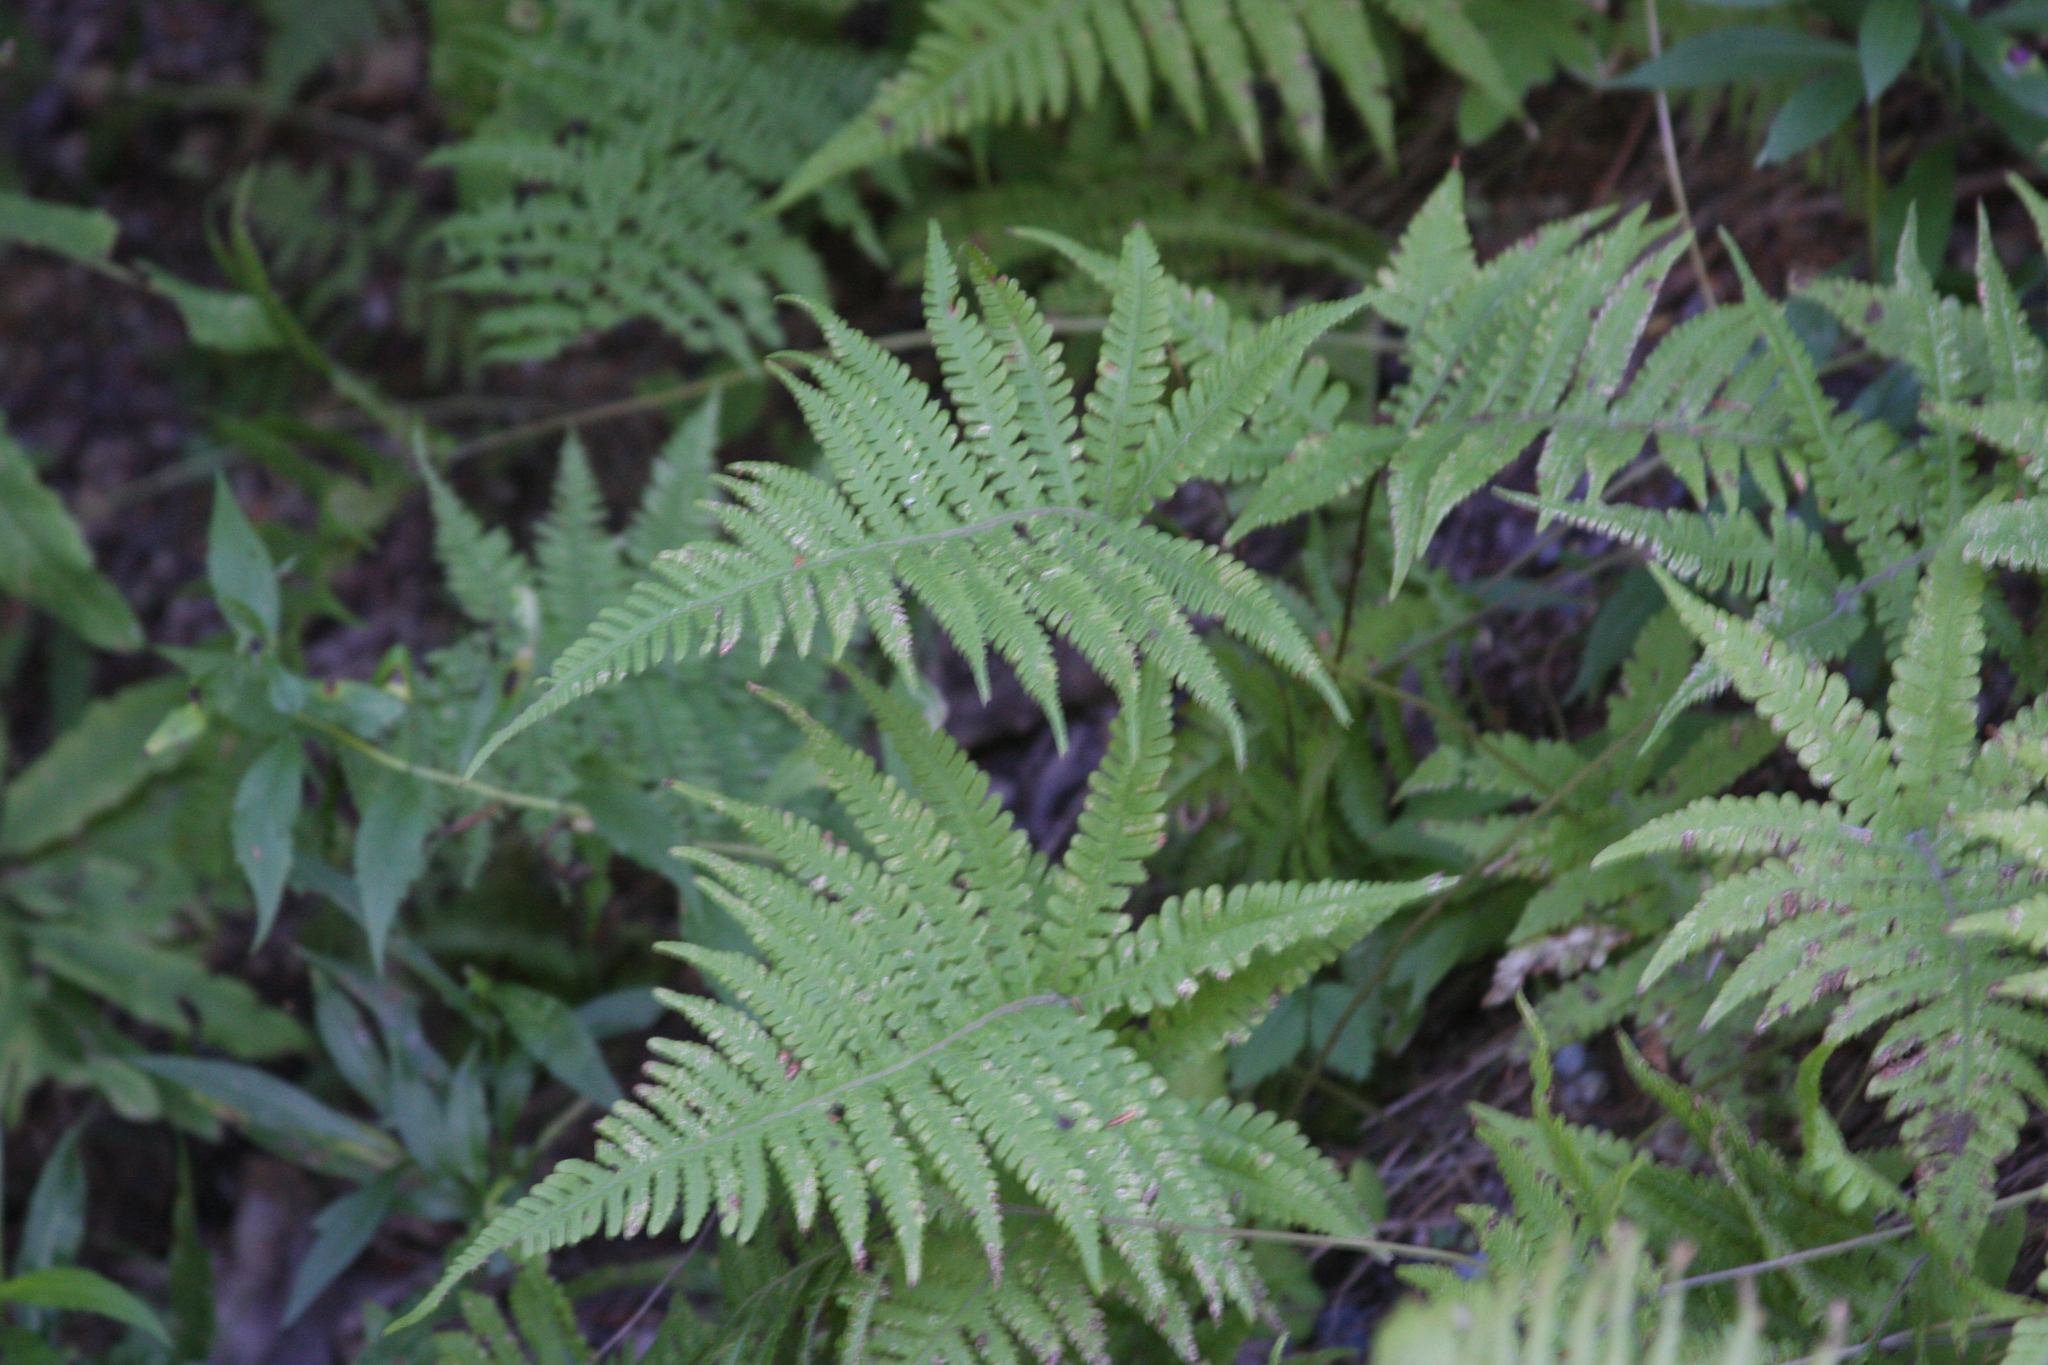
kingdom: Plantae
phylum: Tracheophyta
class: Polypodiopsida
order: Polypodiales
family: Thelypteridaceae
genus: Phegopteris
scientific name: Phegopteris connectilis
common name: Beech fern
